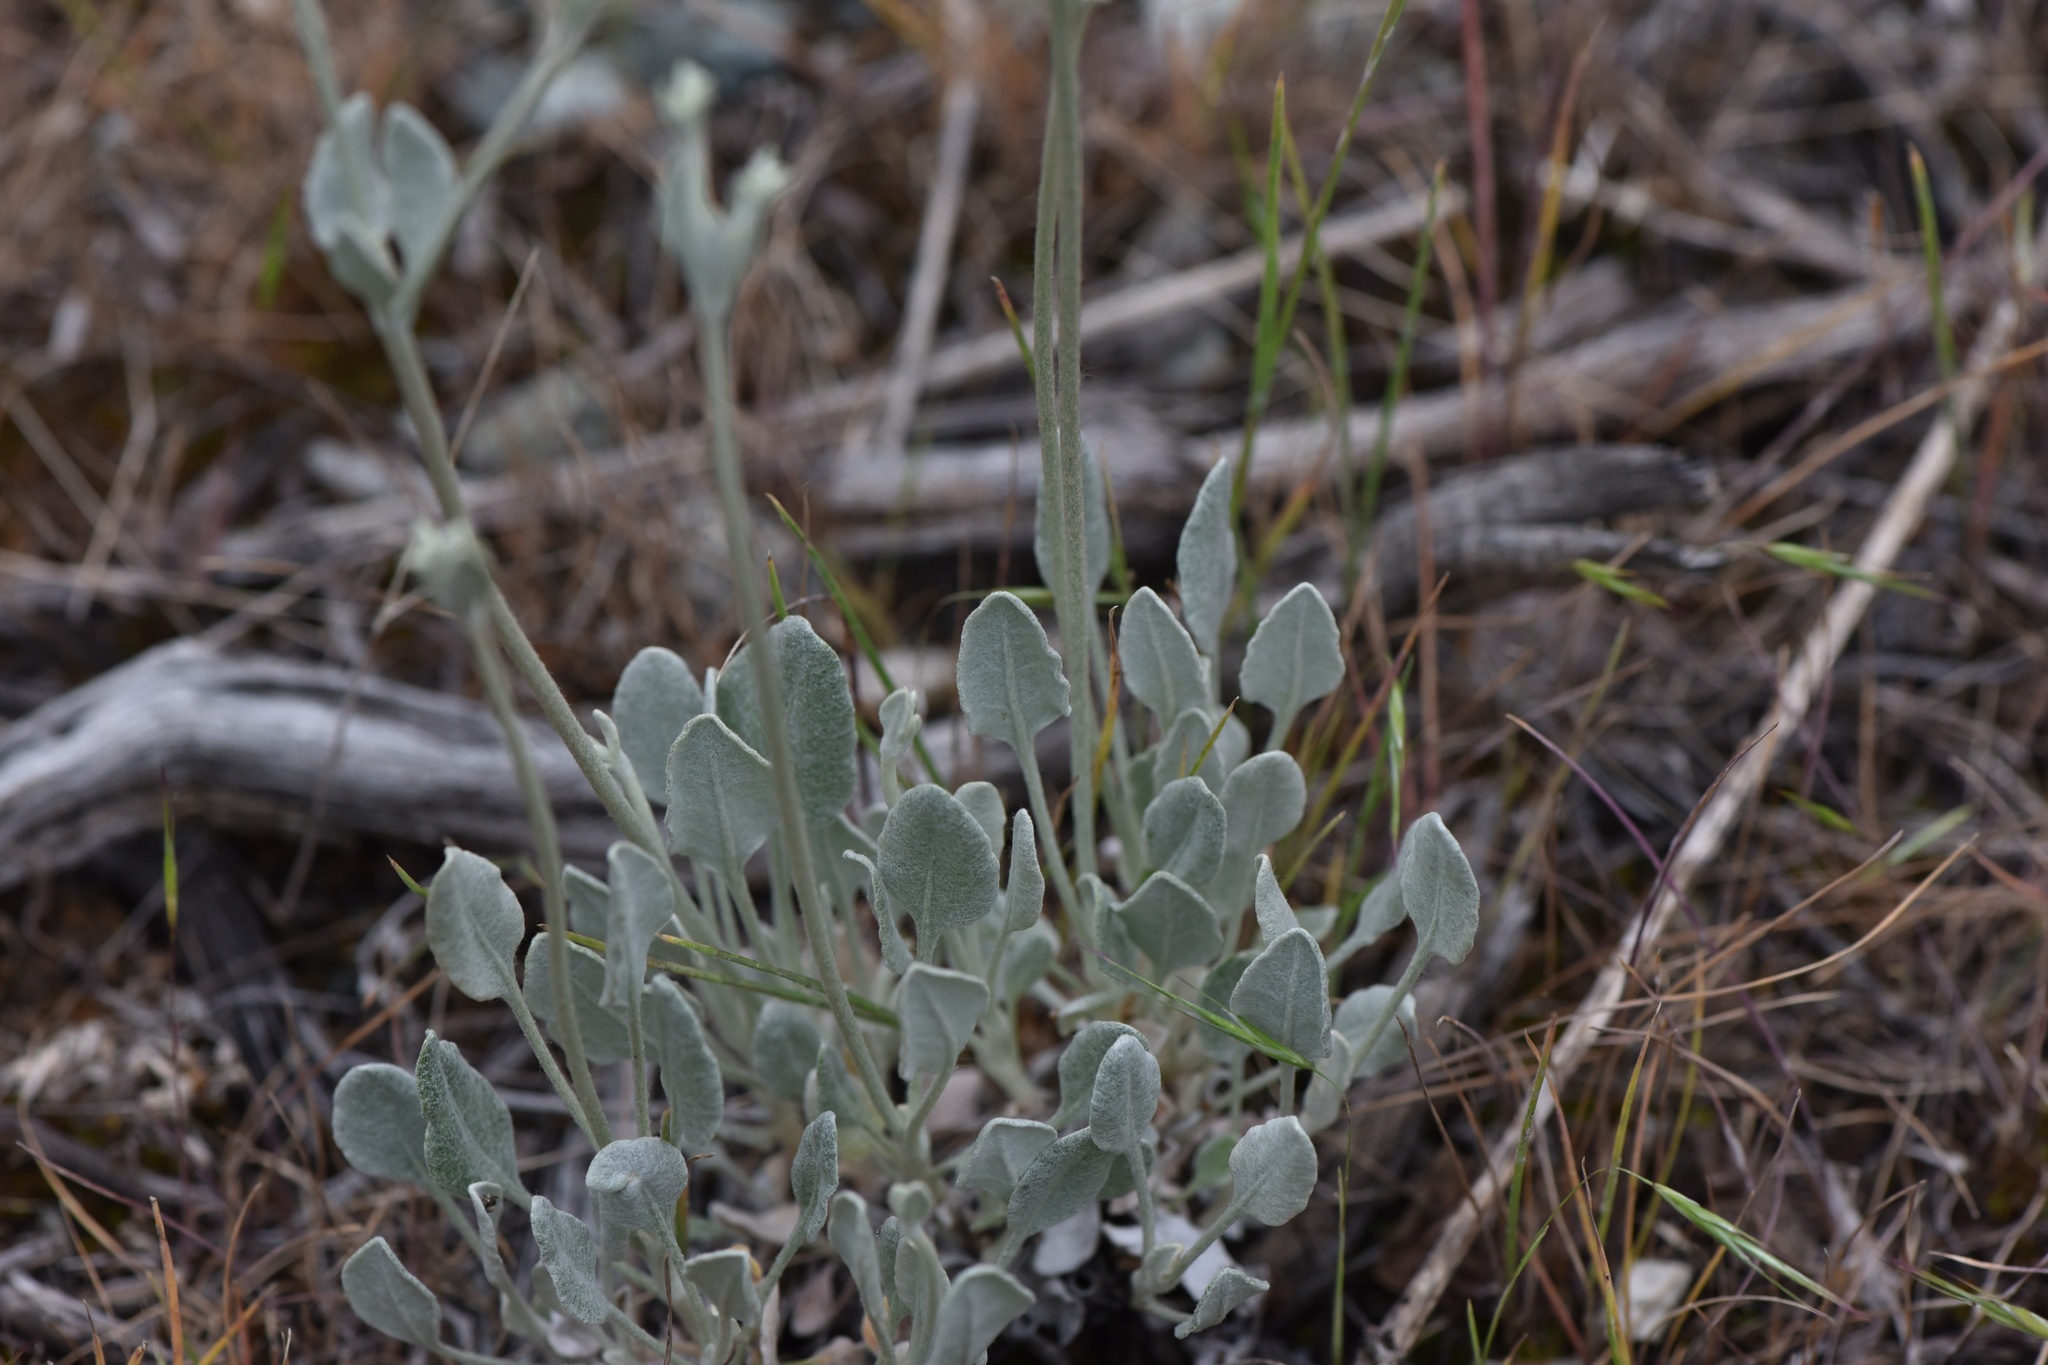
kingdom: Plantae
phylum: Tracheophyta
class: Magnoliopsida
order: Caryophyllales
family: Polygonaceae
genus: Eriogonum
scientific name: Eriogonum niveum
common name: Snow wild buckwheat
